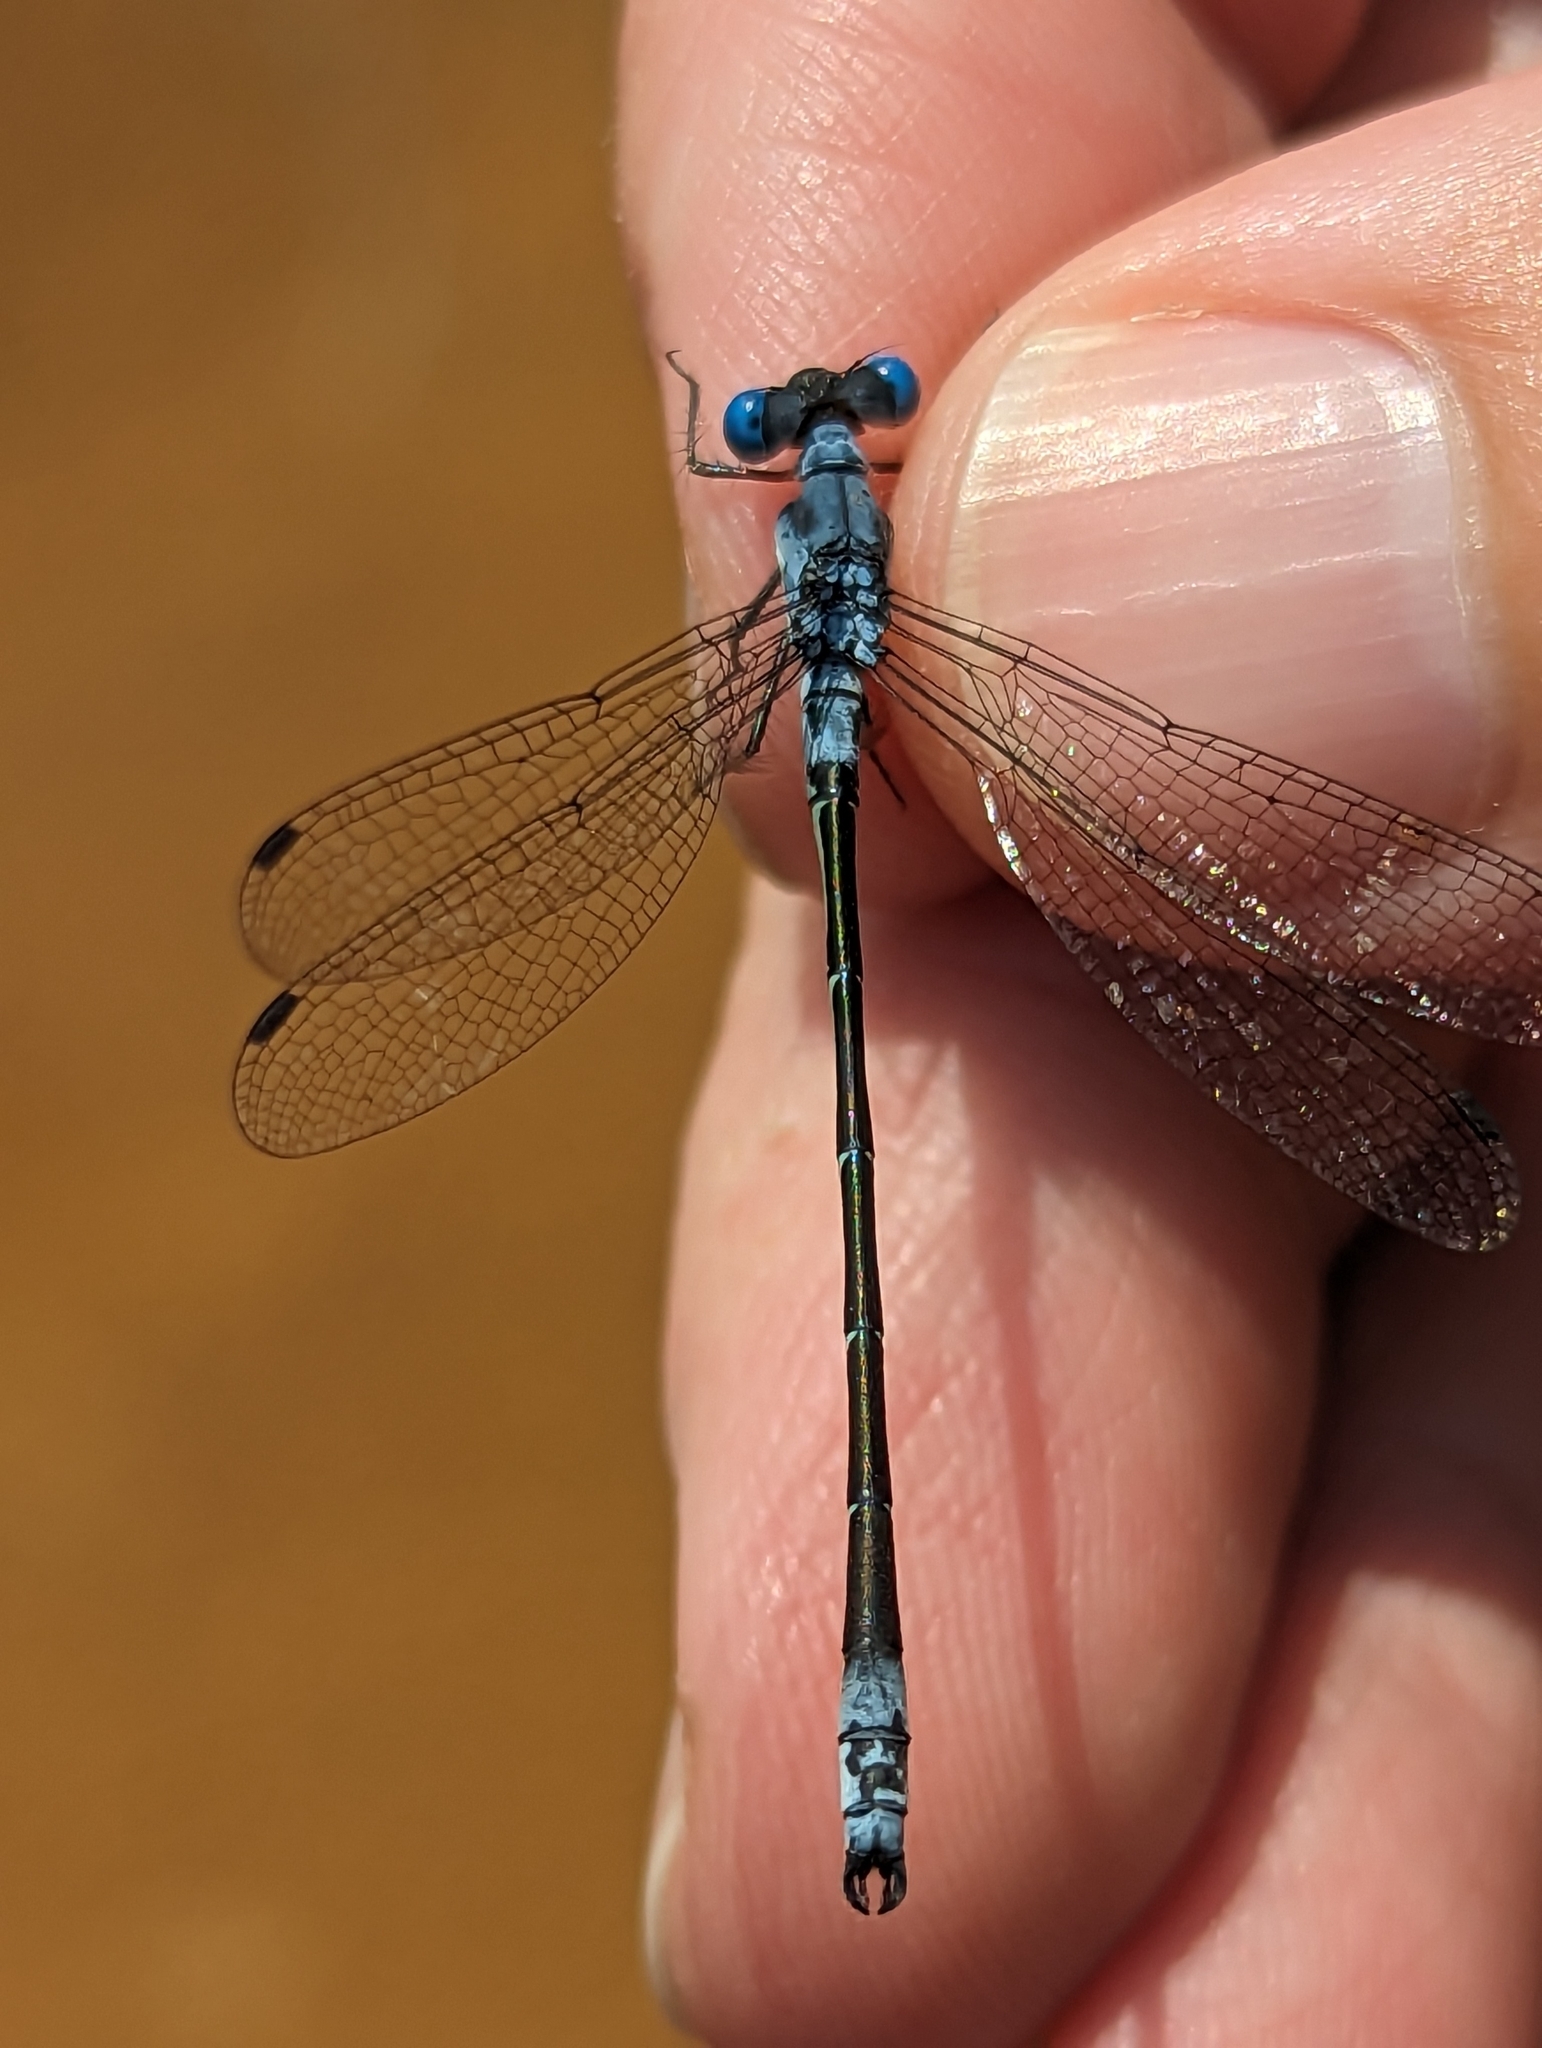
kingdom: Animalia
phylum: Arthropoda
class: Insecta
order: Odonata
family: Lestidae
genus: Lestes
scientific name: Lestes forcipatus
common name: Sweetflag spreadwing
